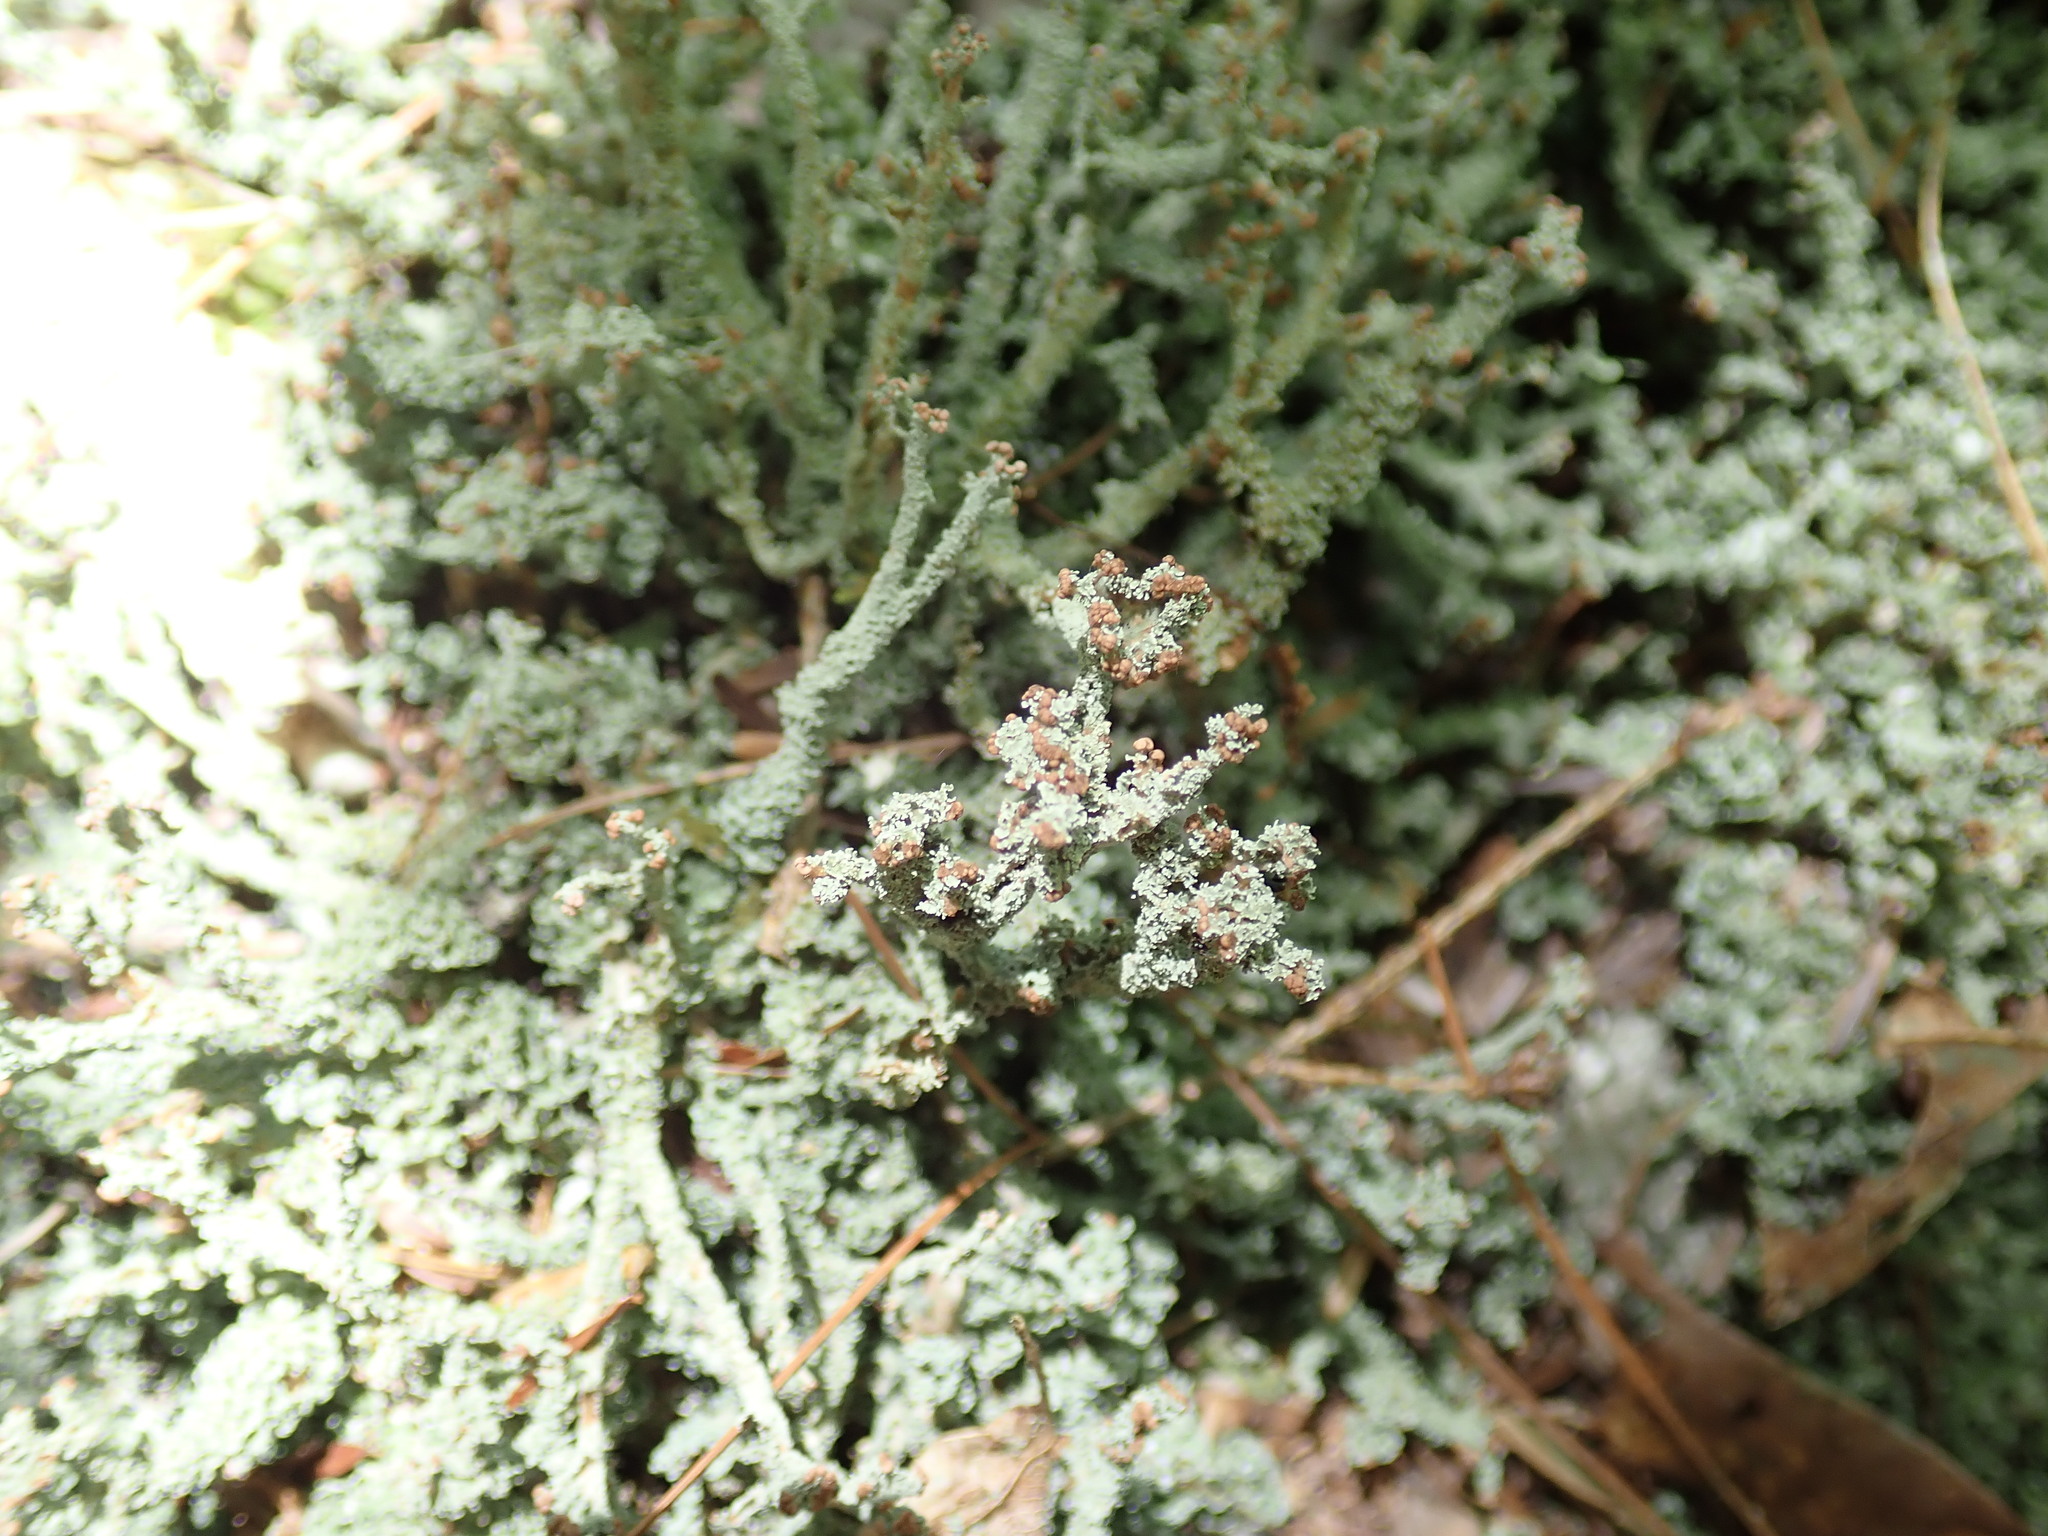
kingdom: Fungi
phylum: Ascomycota
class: Lecanoromycetes
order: Lecanorales
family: Cladoniaceae
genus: Cladonia
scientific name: Cladonia squamosa
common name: Dragon horn
